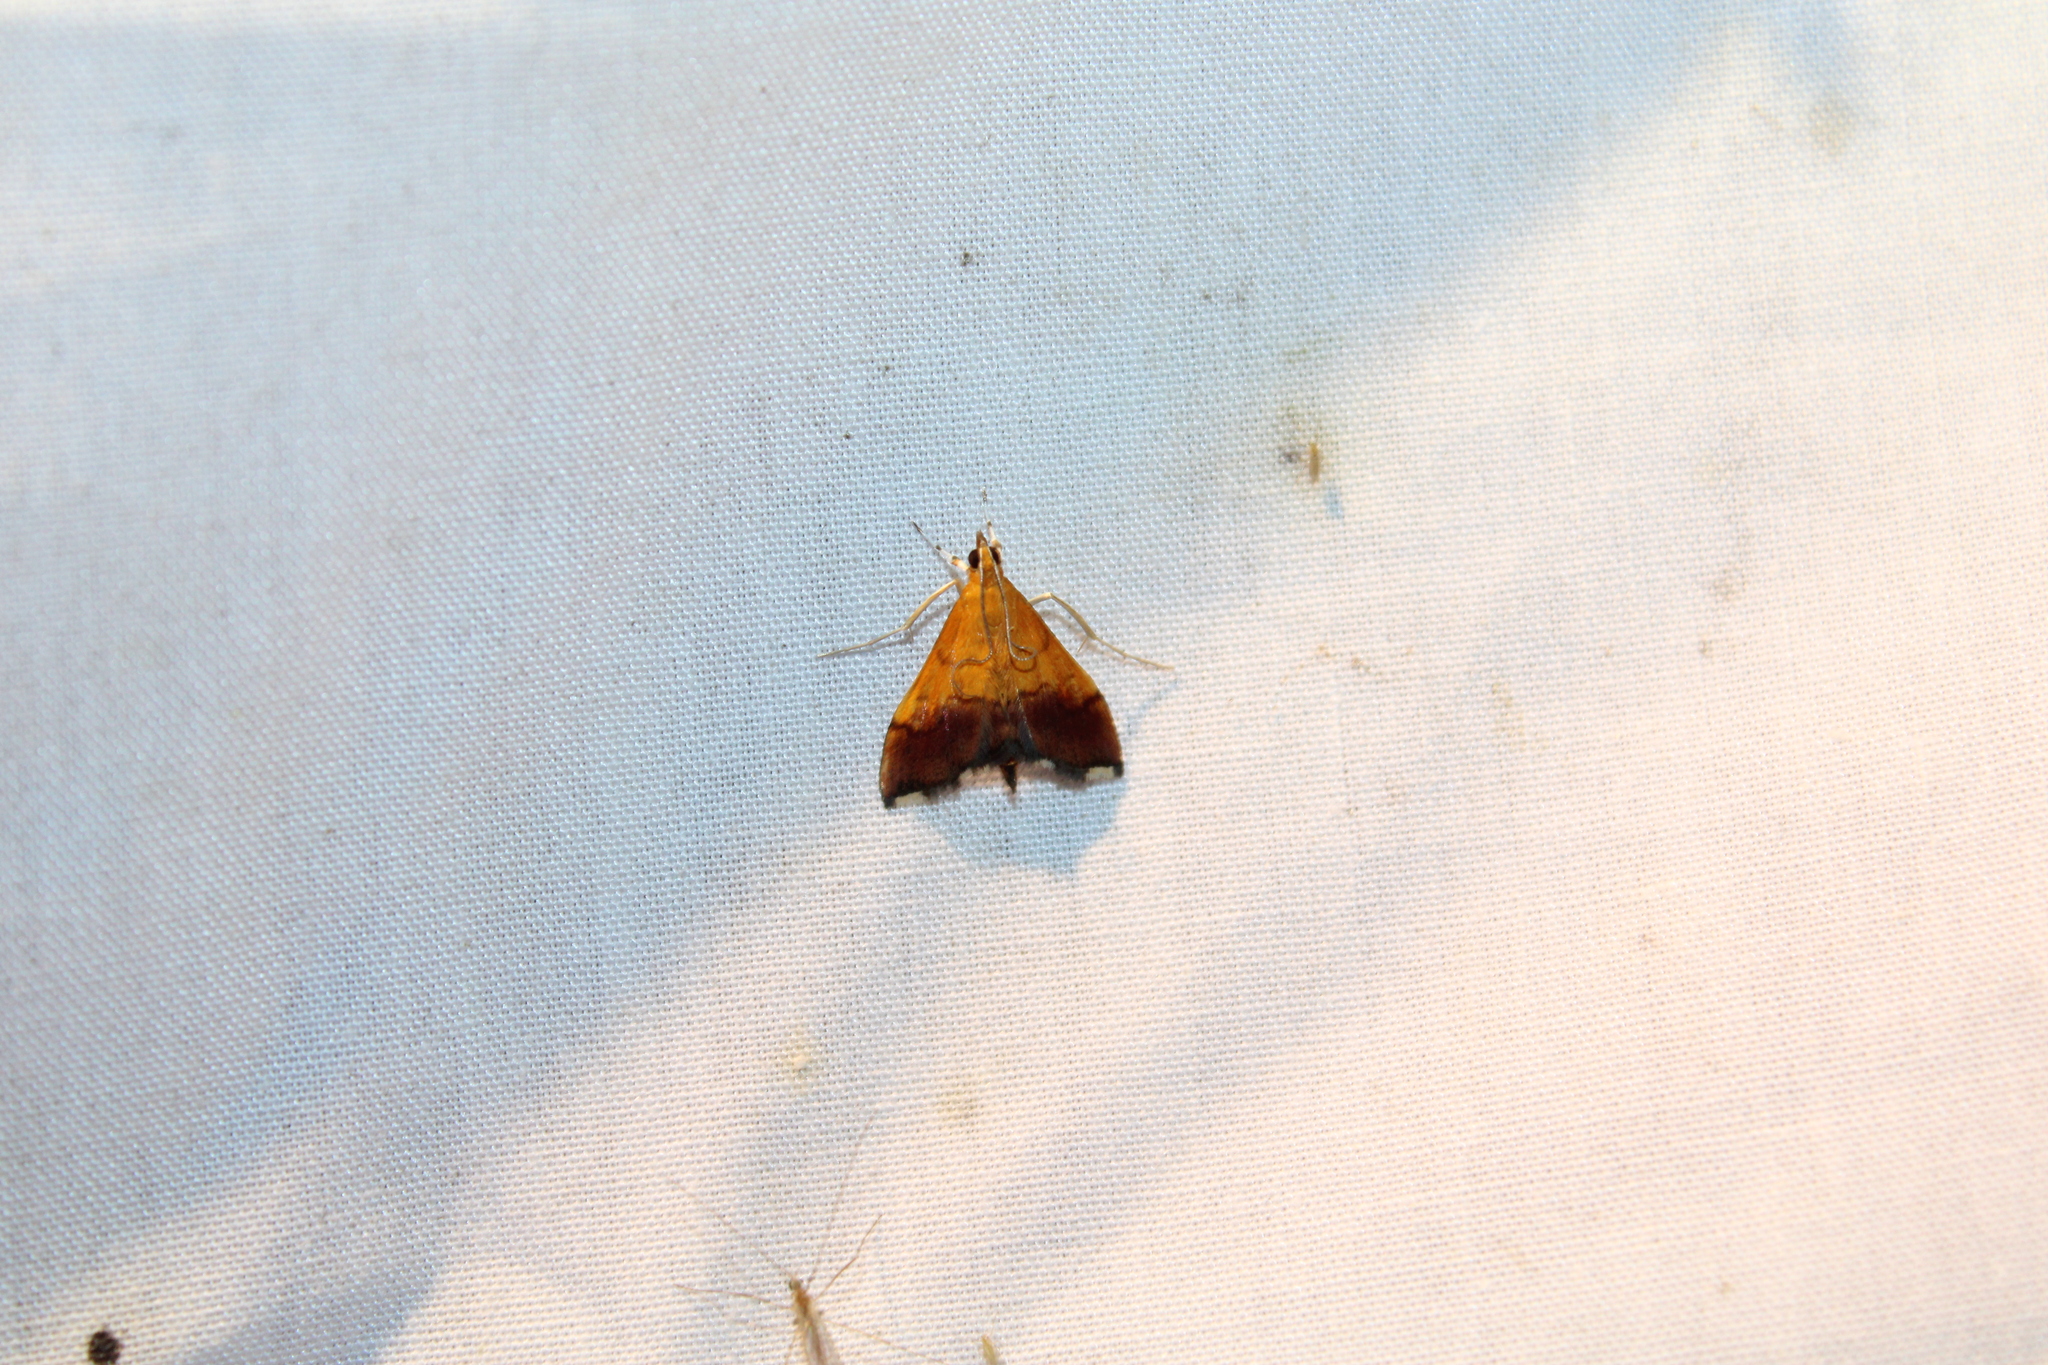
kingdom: Animalia
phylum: Arthropoda
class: Insecta
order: Lepidoptera
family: Crambidae
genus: Pyrausta
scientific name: Pyrausta bicoloralis
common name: Bicolored pyrausta moth
